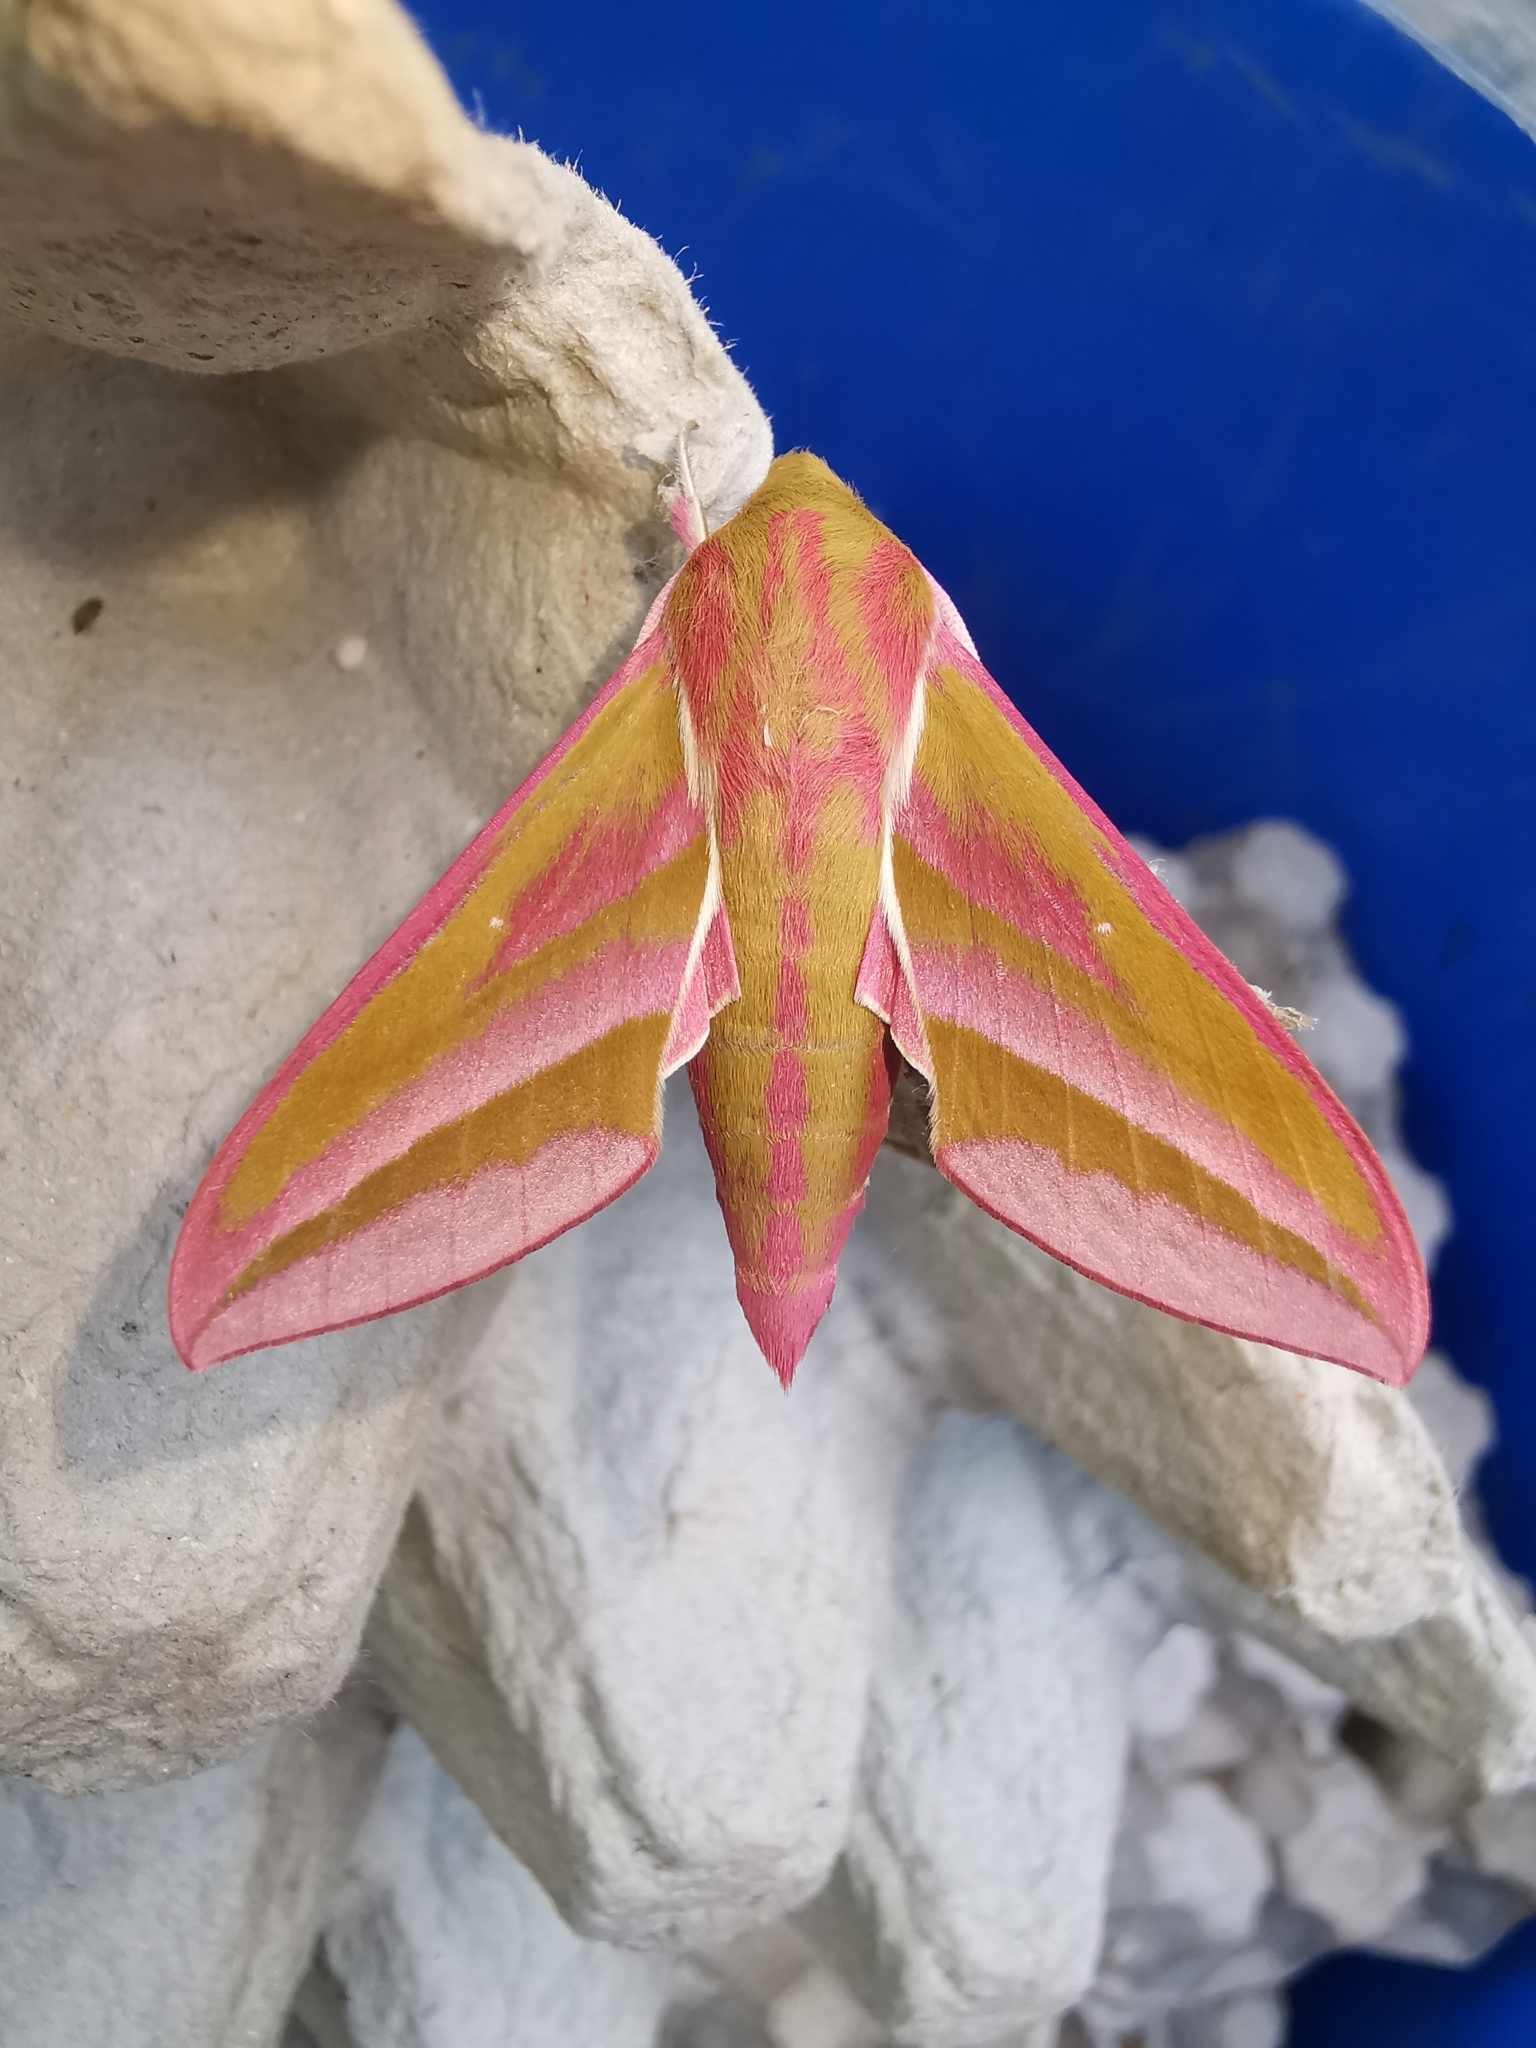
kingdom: Animalia
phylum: Arthropoda
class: Insecta
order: Lepidoptera
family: Sphingidae
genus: Deilephila
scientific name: Deilephila elpenor
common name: Elephant hawk-moth
